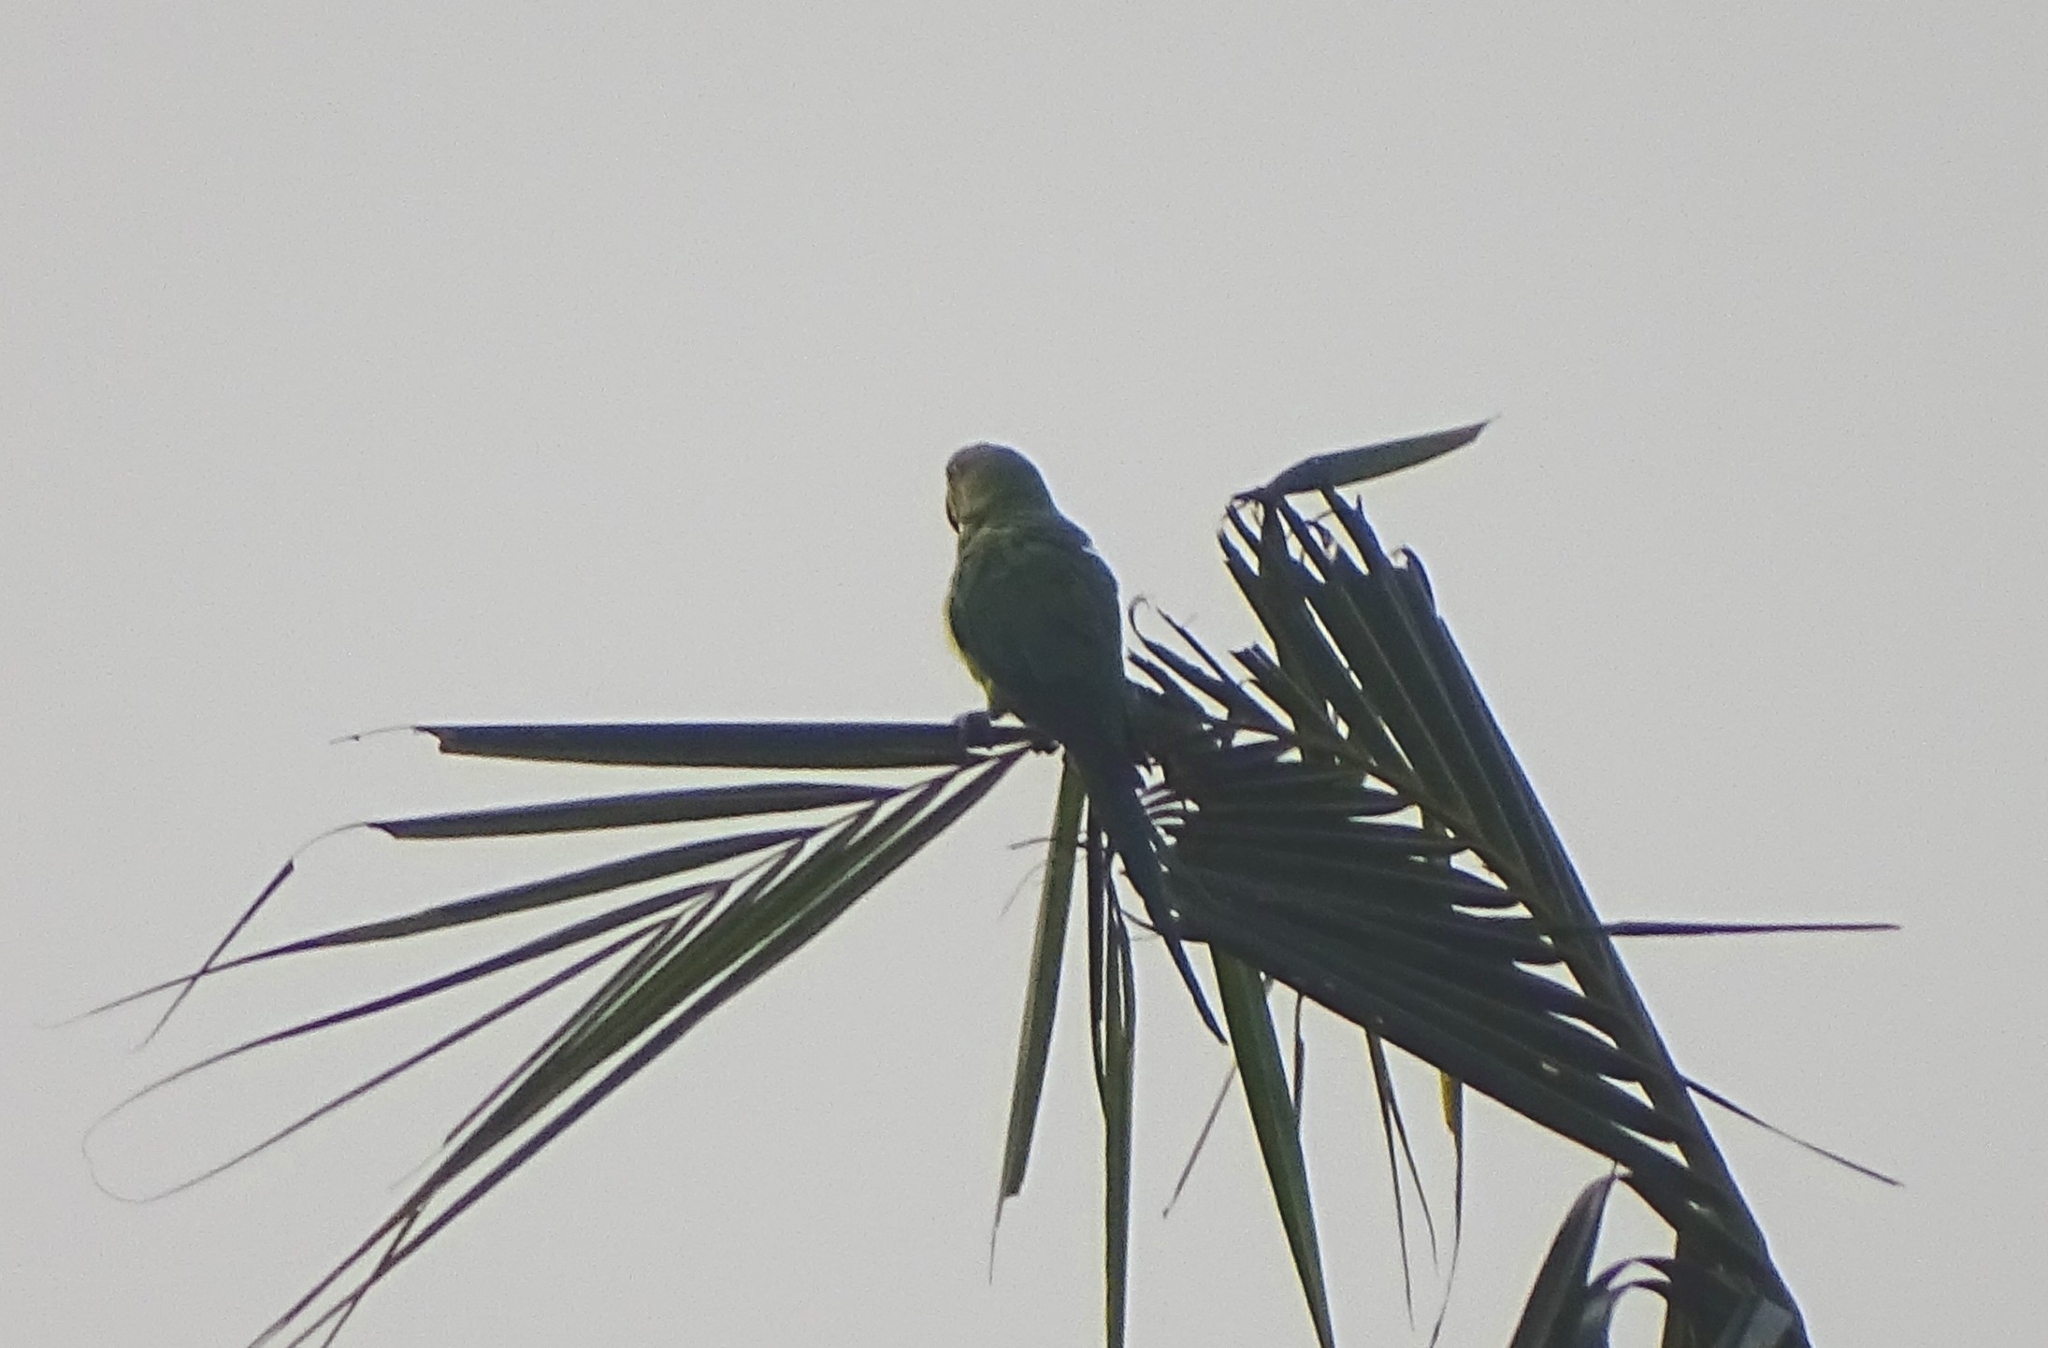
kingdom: Animalia
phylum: Chordata
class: Aves
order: Psittaciformes
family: Psittacidae
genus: Psittacula
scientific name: Psittacula krameri
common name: Rose-ringed parakeet
